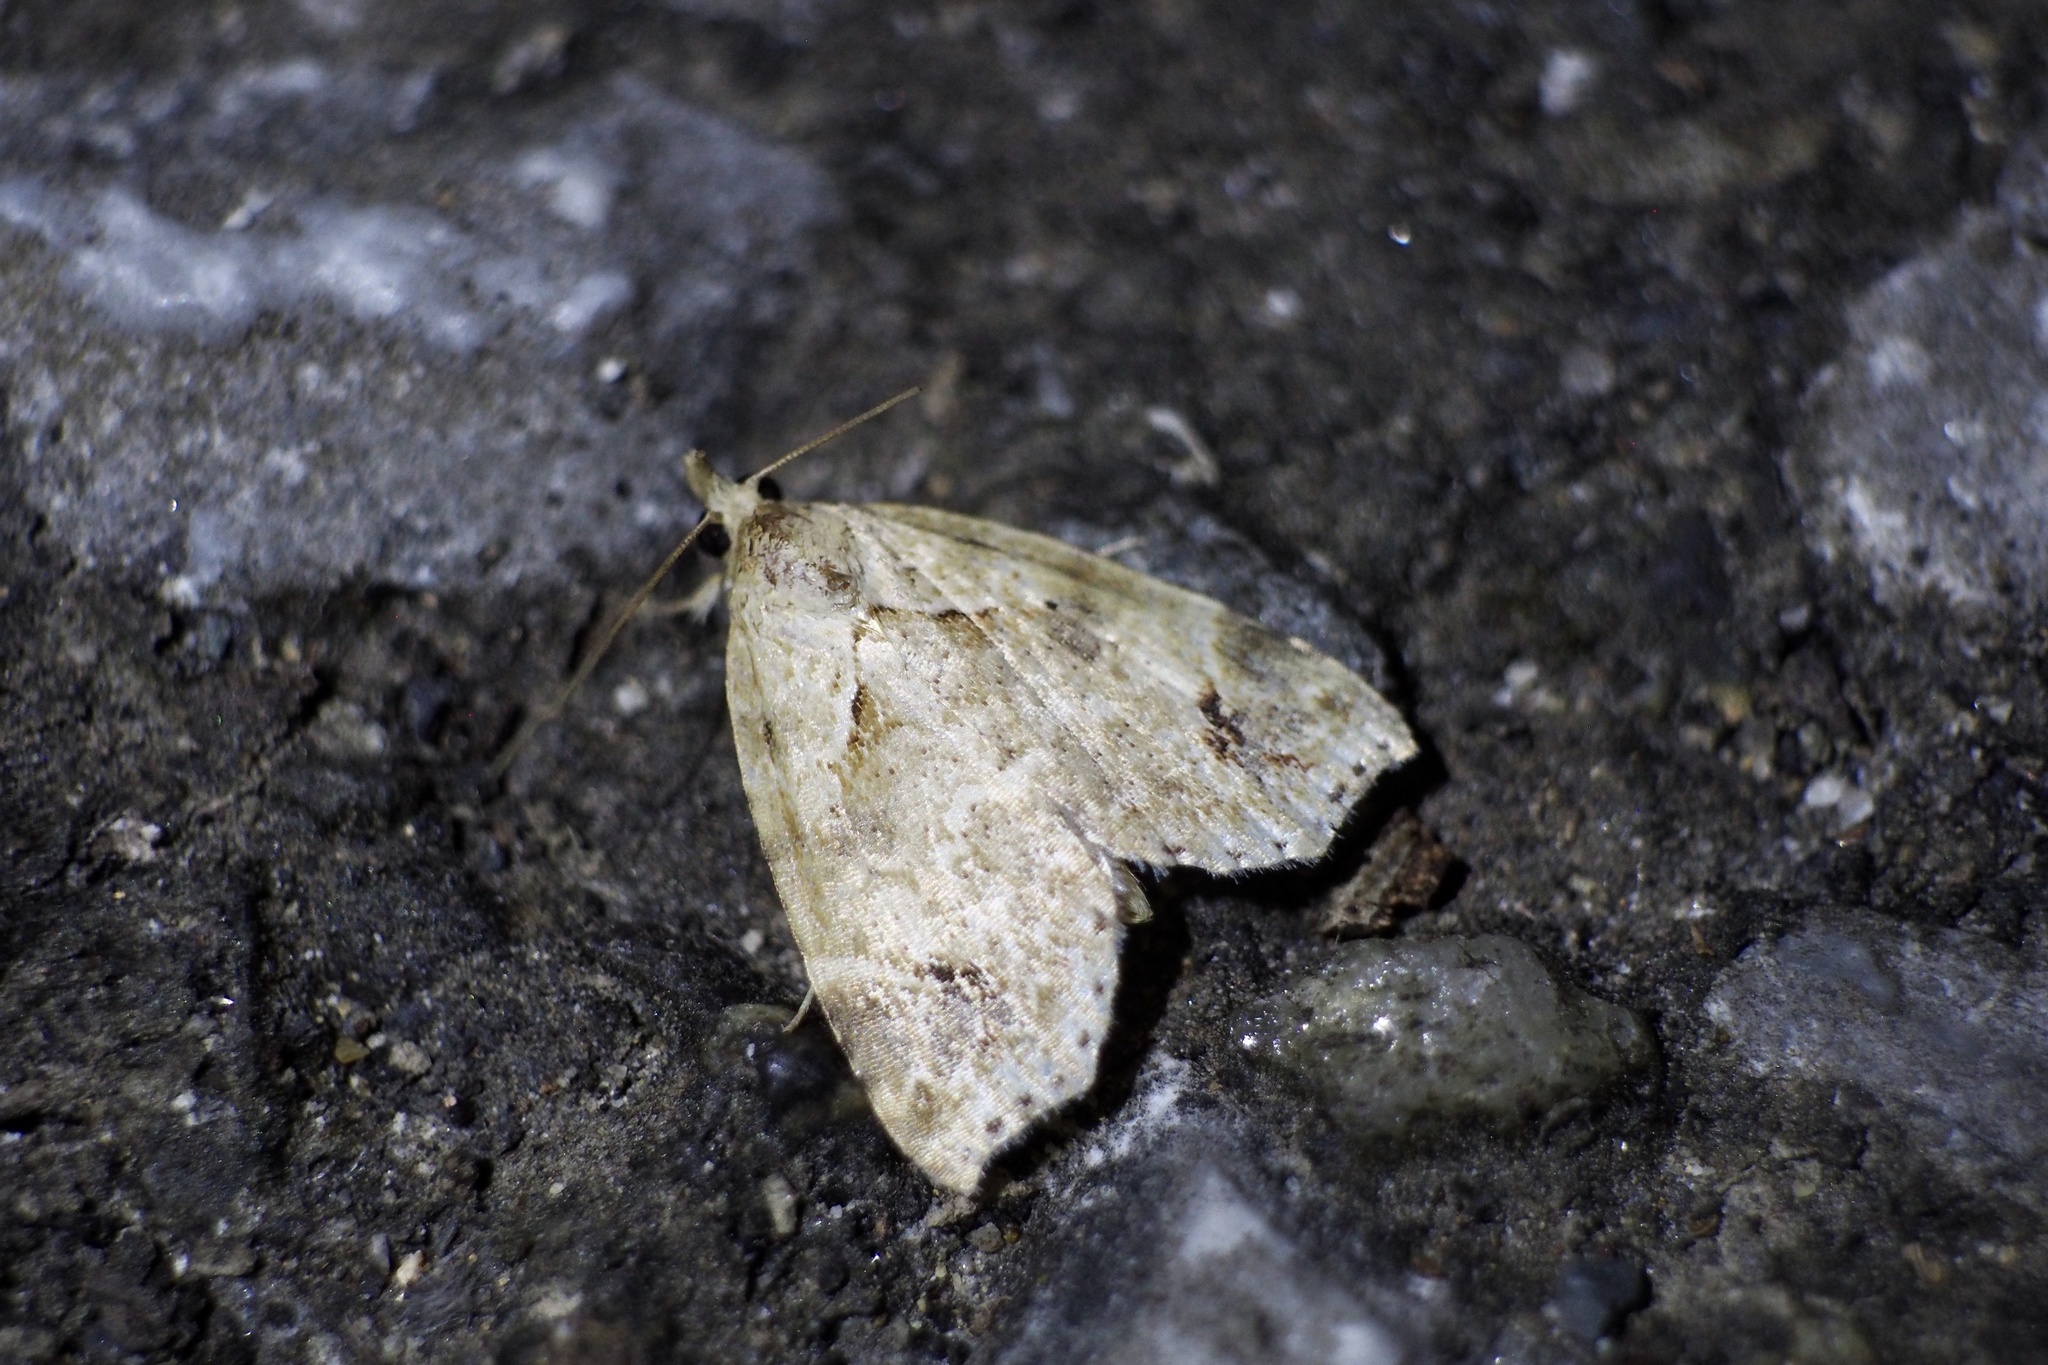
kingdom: Animalia
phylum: Arthropoda
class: Insecta
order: Lepidoptera
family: Erebidae
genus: Olulis
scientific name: Olulis
